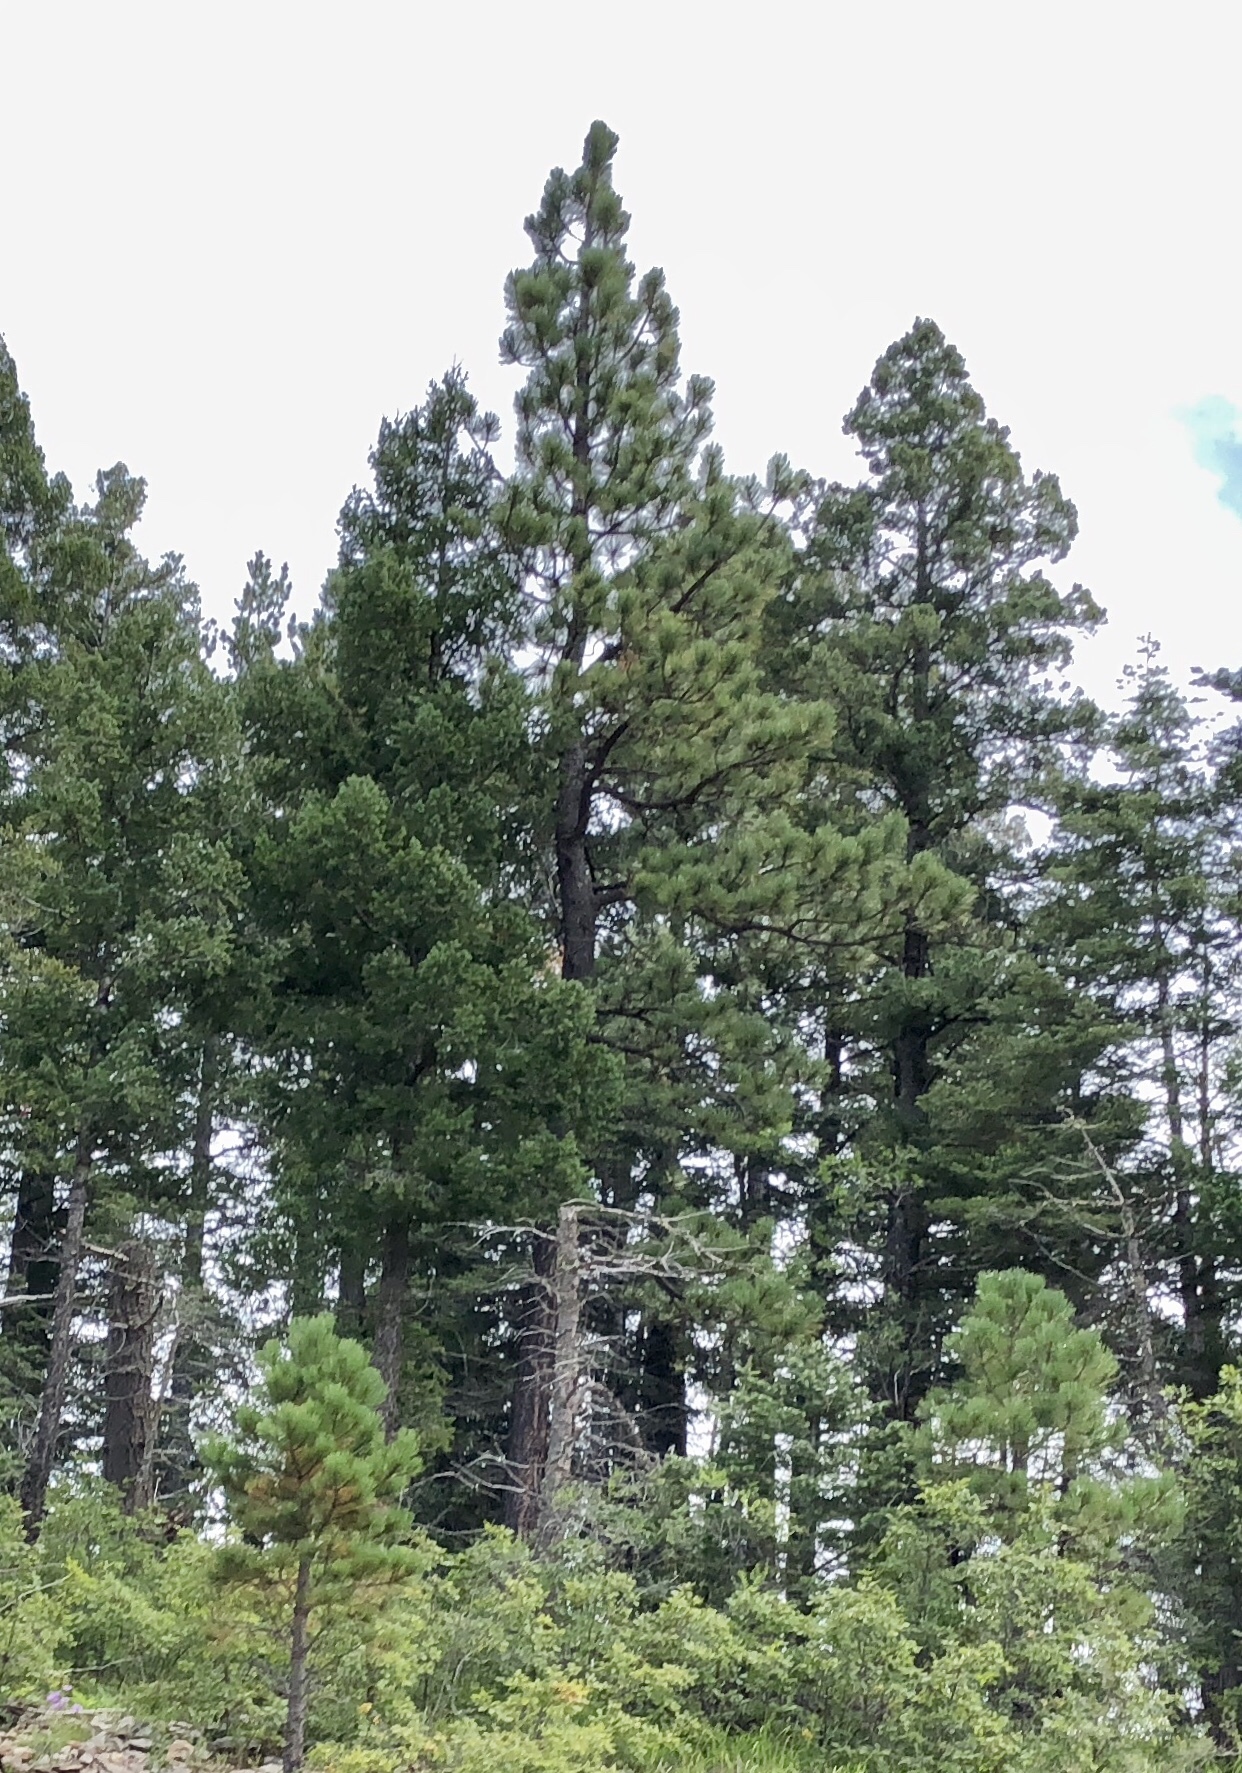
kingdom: Plantae
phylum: Tracheophyta
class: Pinopsida
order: Pinales
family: Pinaceae
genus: Pinus
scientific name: Pinus ponderosa
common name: Western yellow-pine
